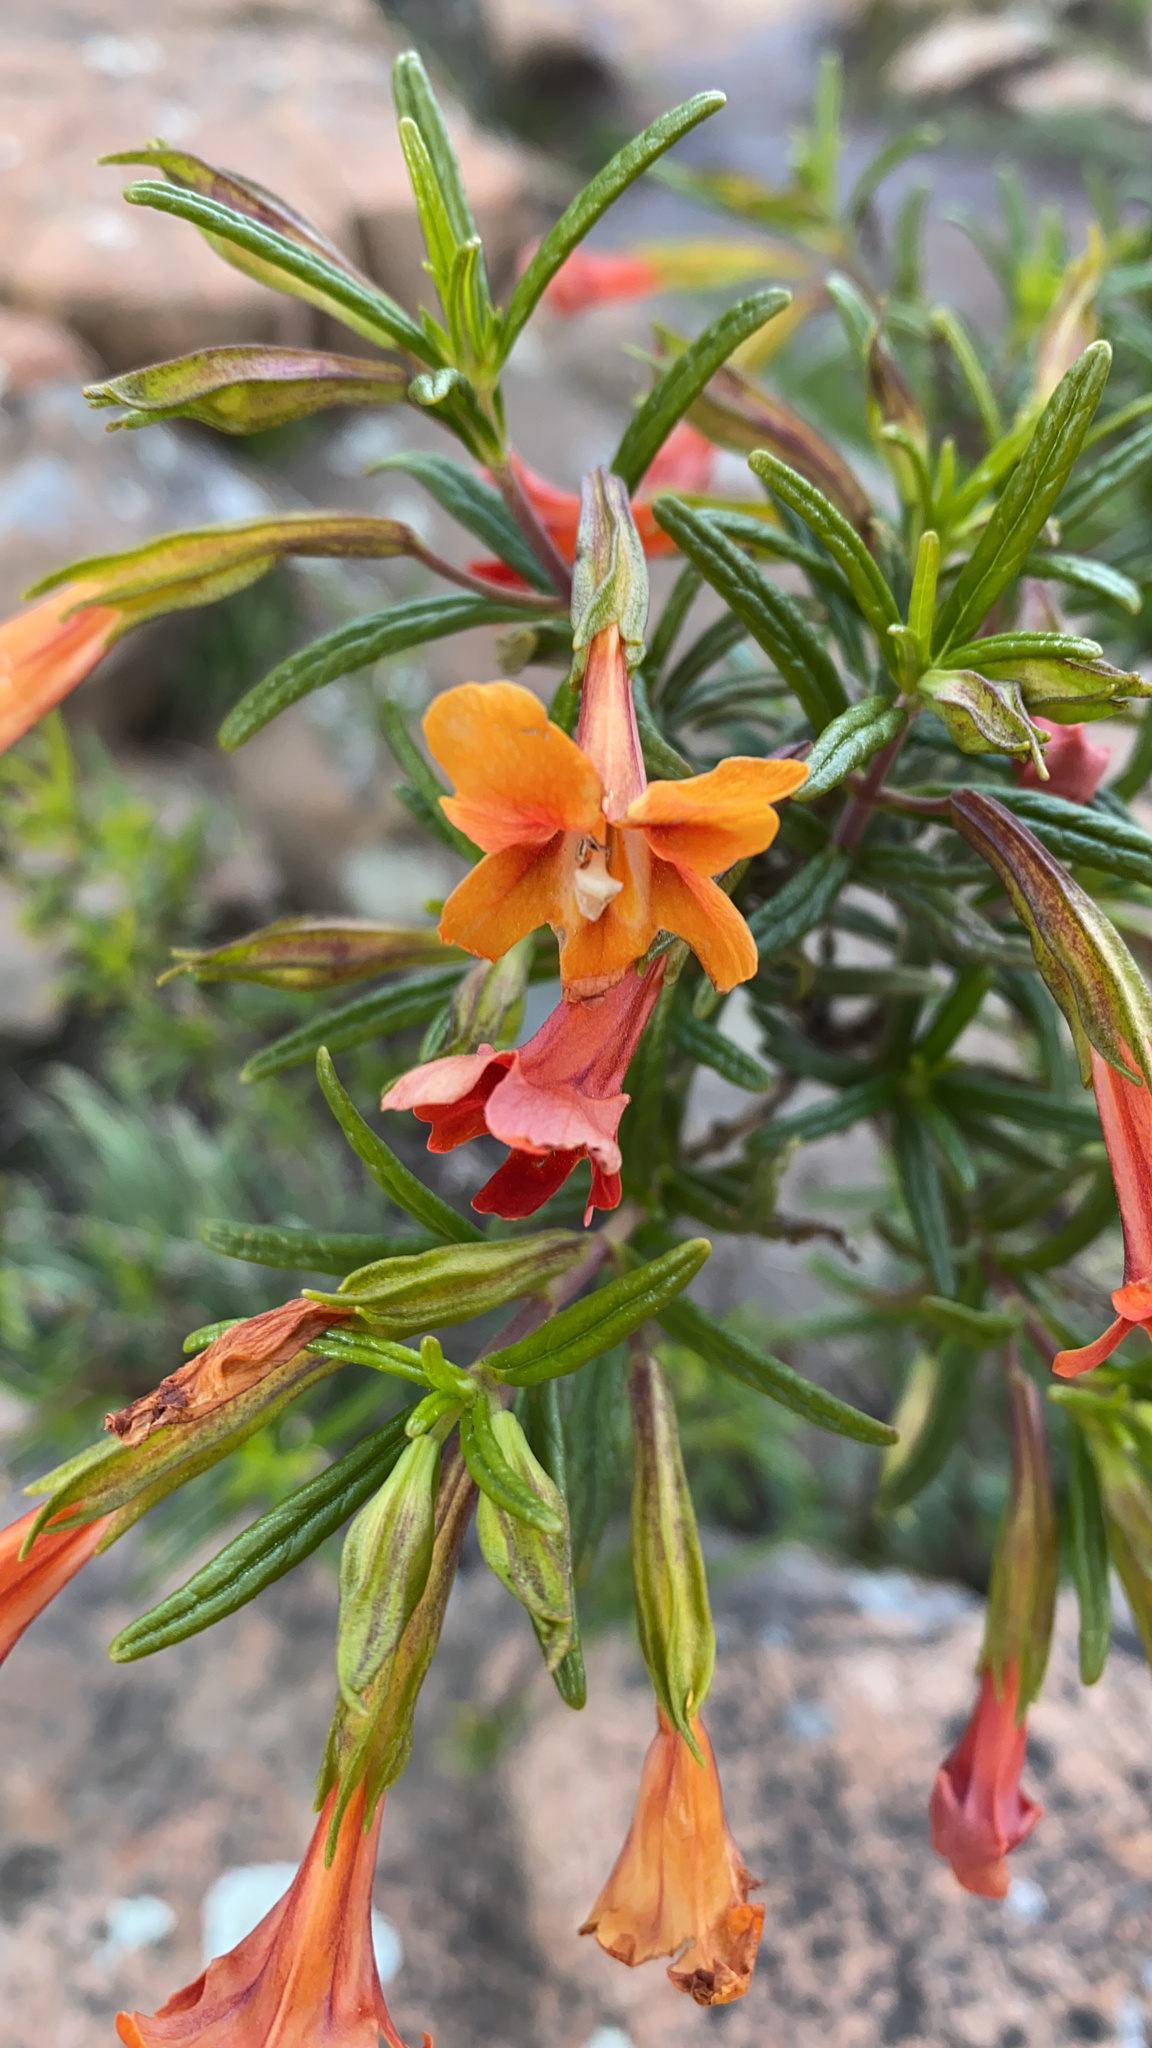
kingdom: Plantae
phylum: Tracheophyta
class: Magnoliopsida
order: Lamiales
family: Phrymaceae
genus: Diplacus
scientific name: Diplacus australis
